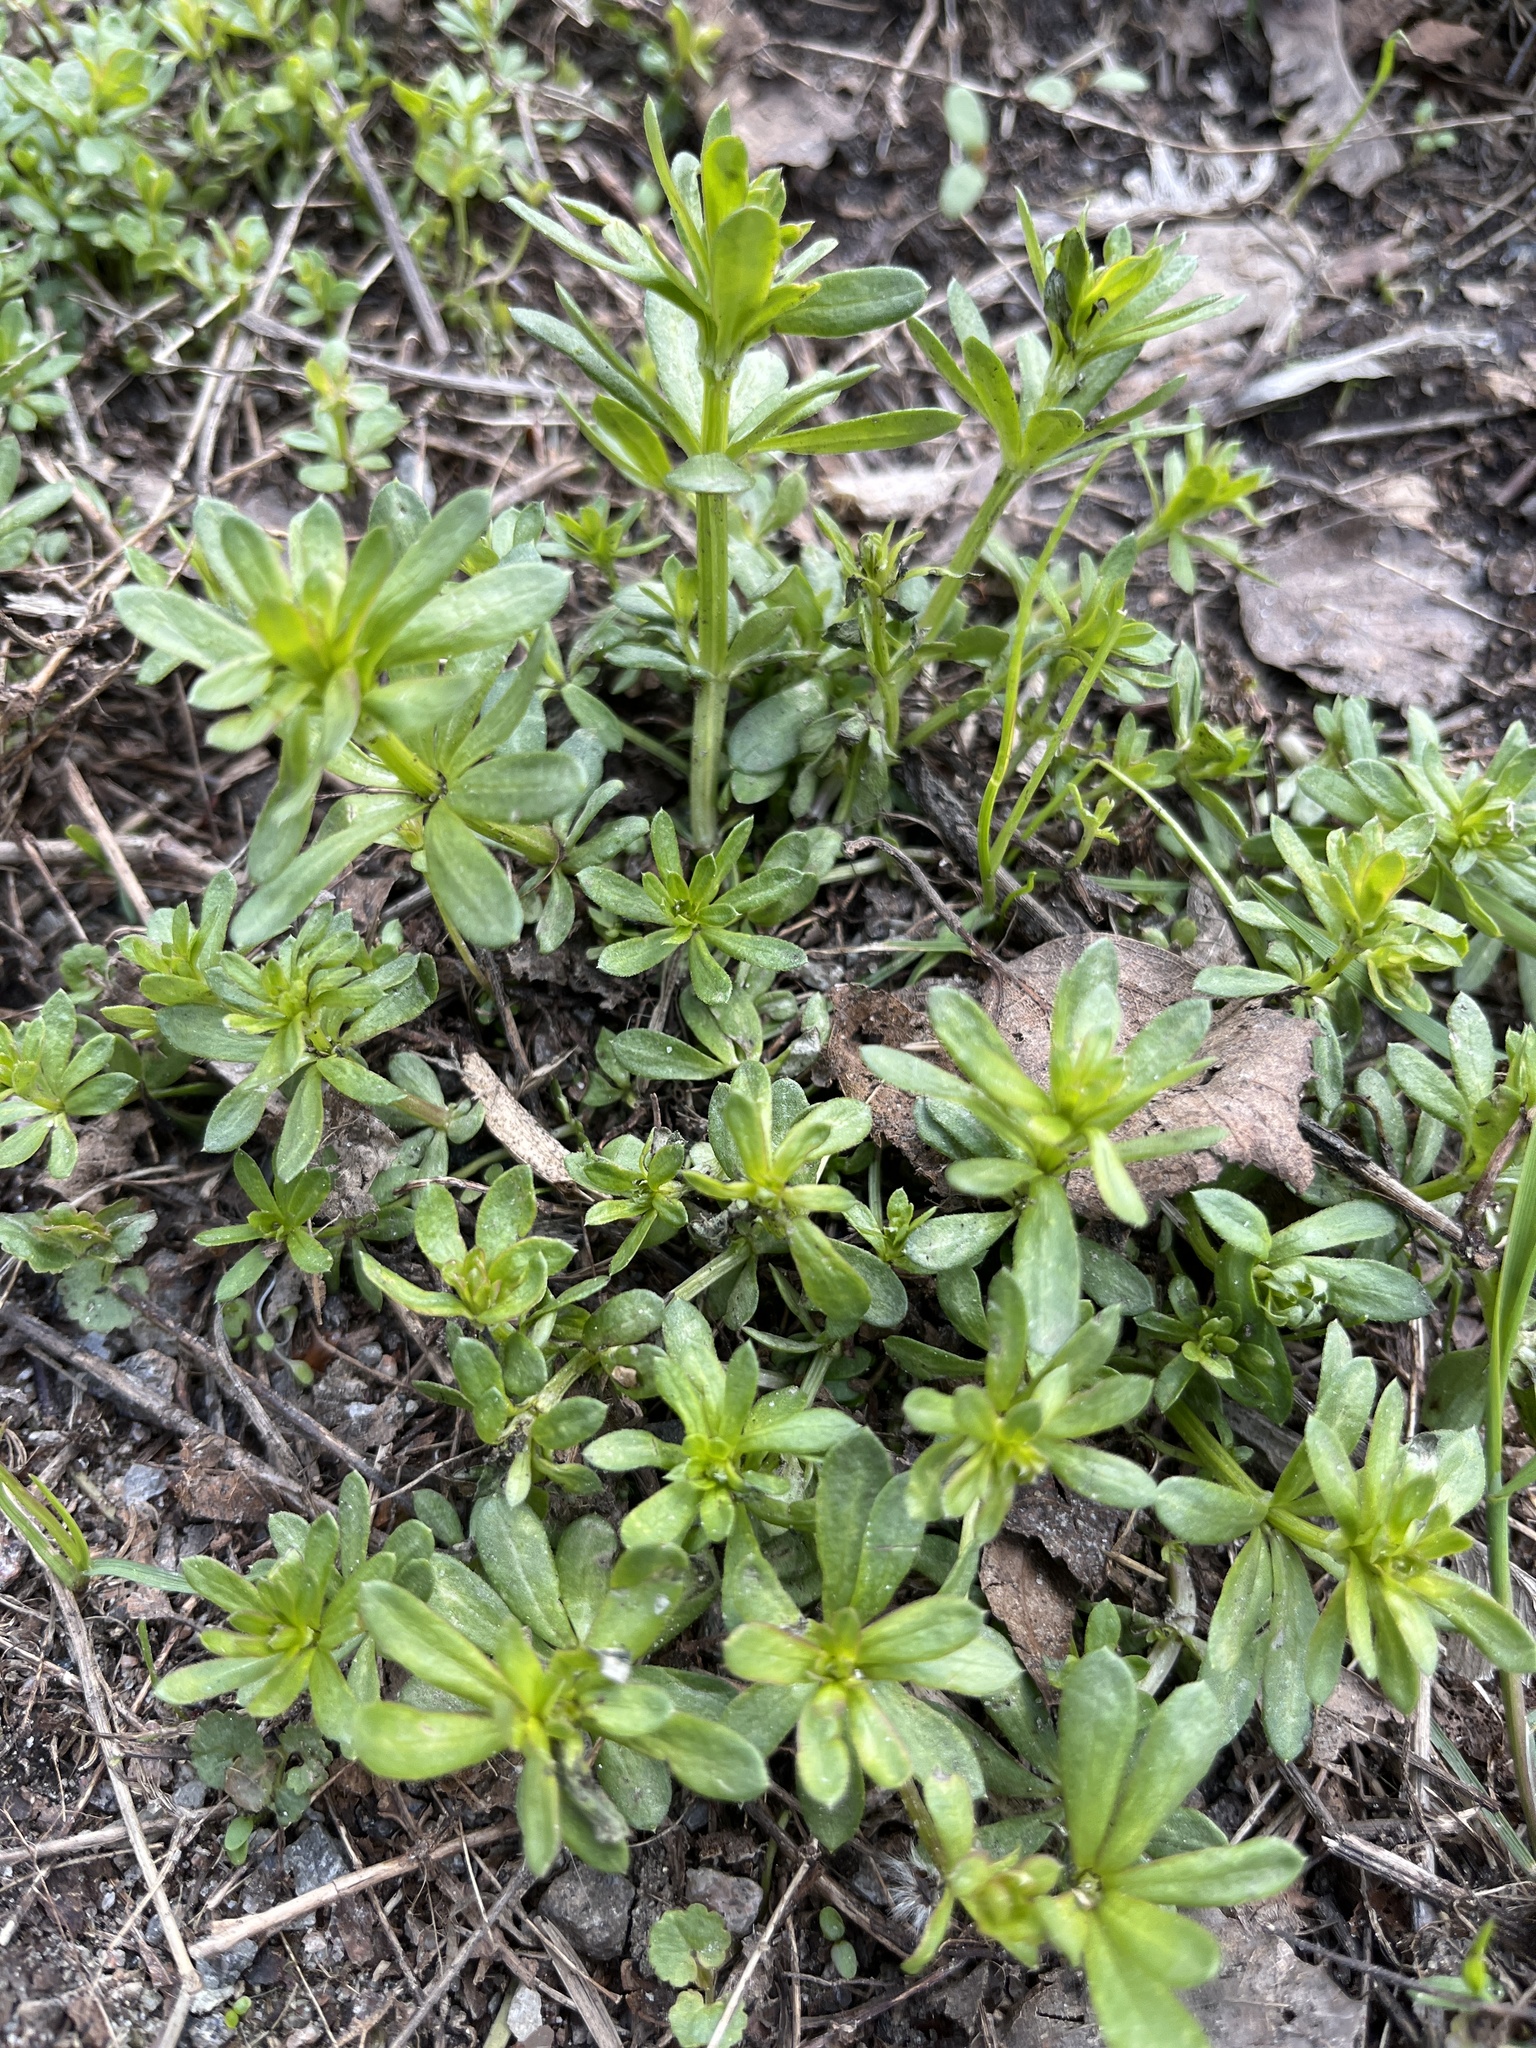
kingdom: Plantae
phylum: Tracheophyta
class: Magnoliopsida
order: Gentianales
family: Rubiaceae
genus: Galium
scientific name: Galium mollugo
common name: Hedge bedstraw
